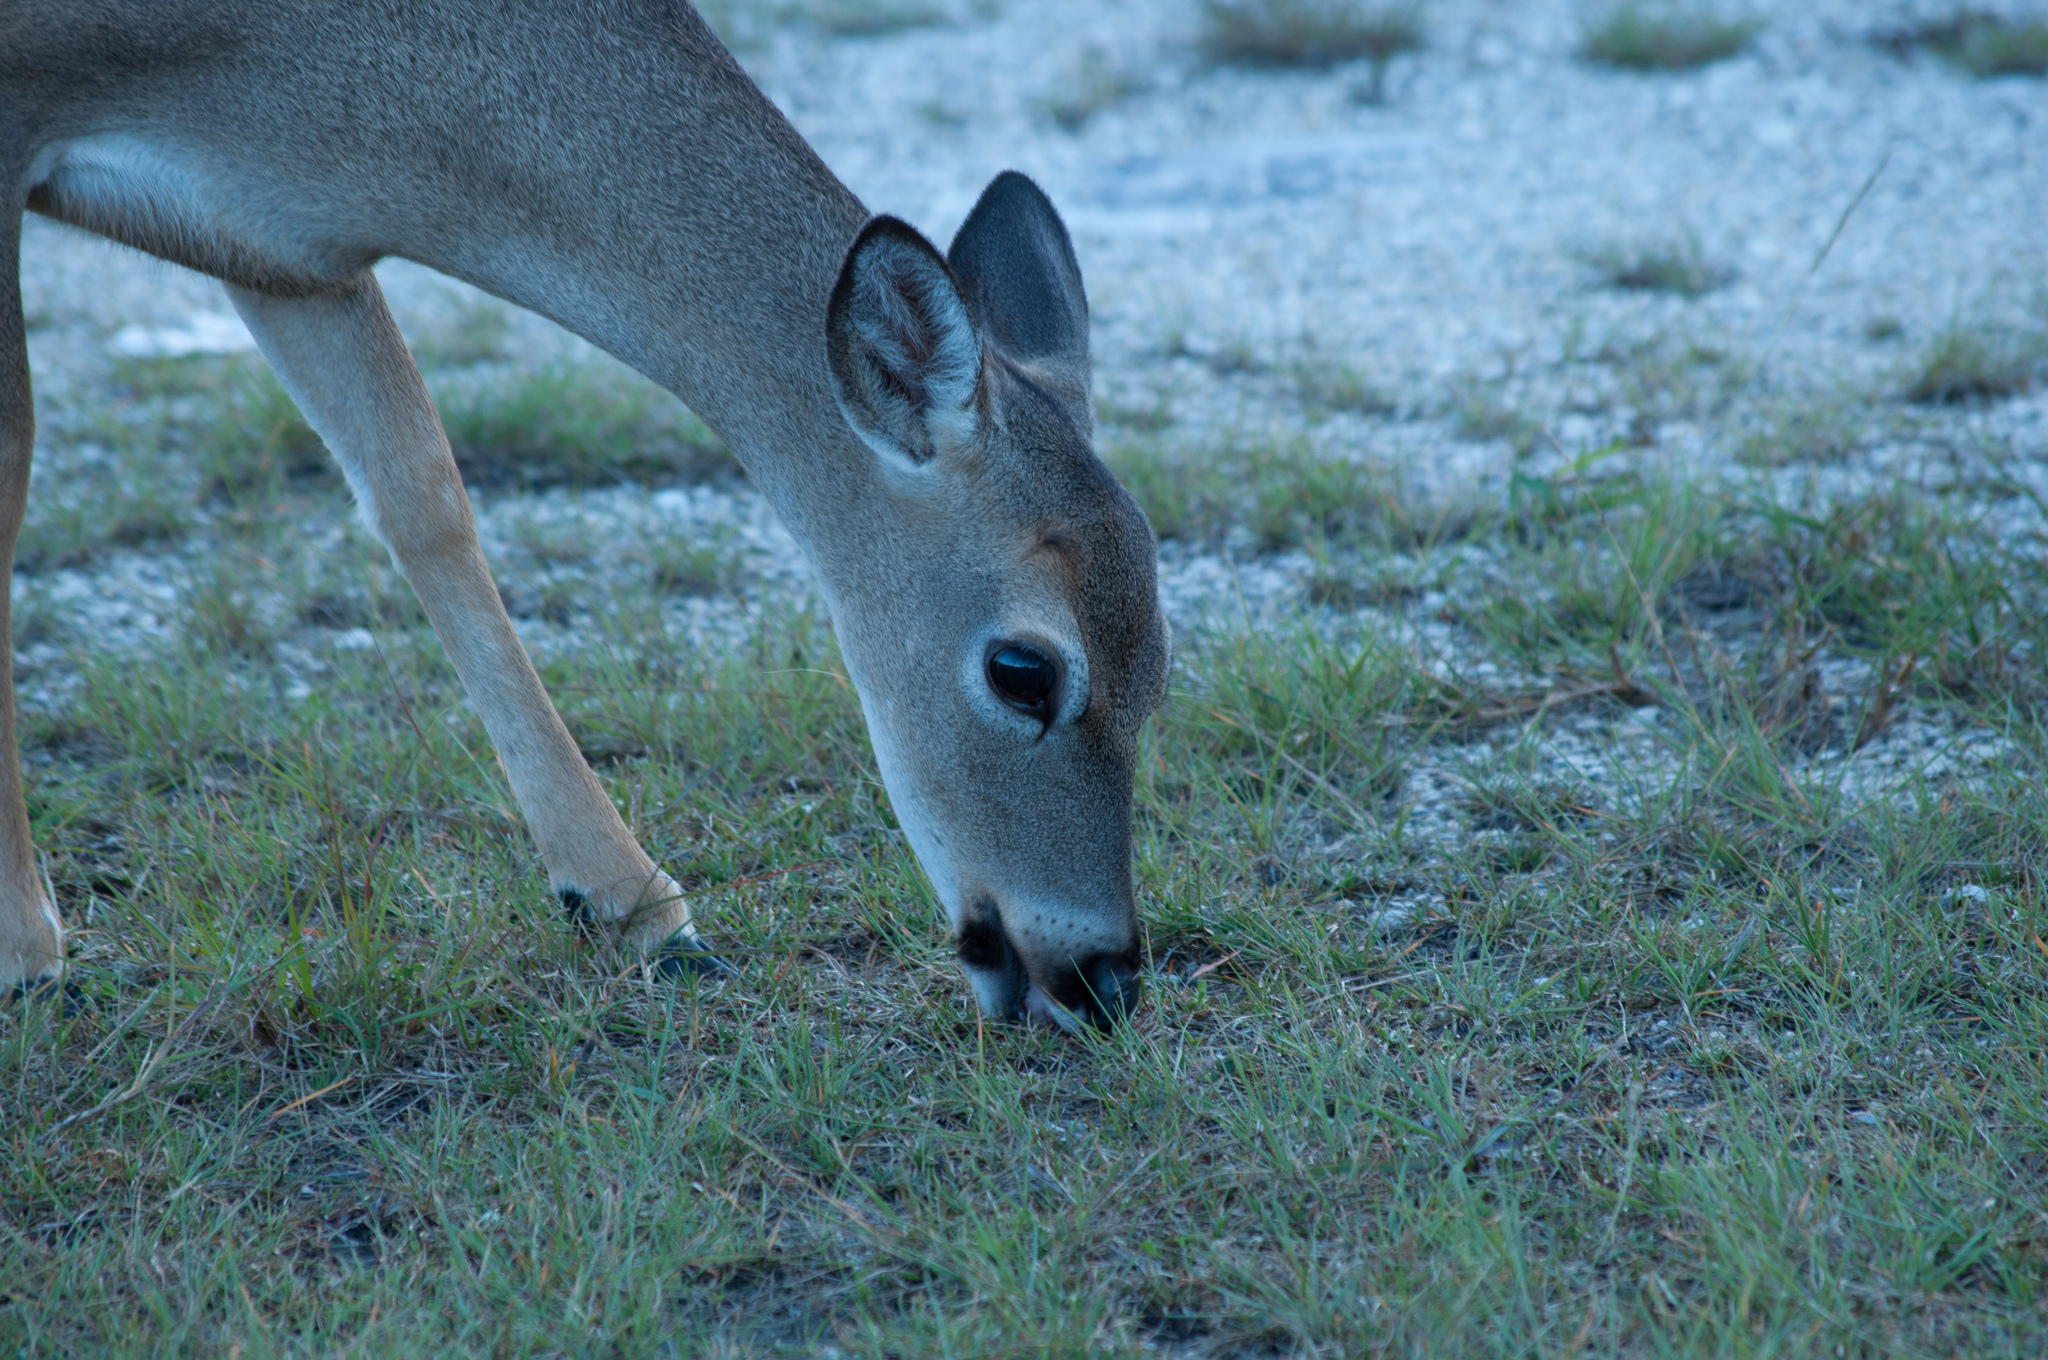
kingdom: Animalia
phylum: Chordata
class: Mammalia
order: Artiodactyla
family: Cervidae
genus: Odocoileus
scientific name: Odocoileus virginianus
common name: White-tailed deer
